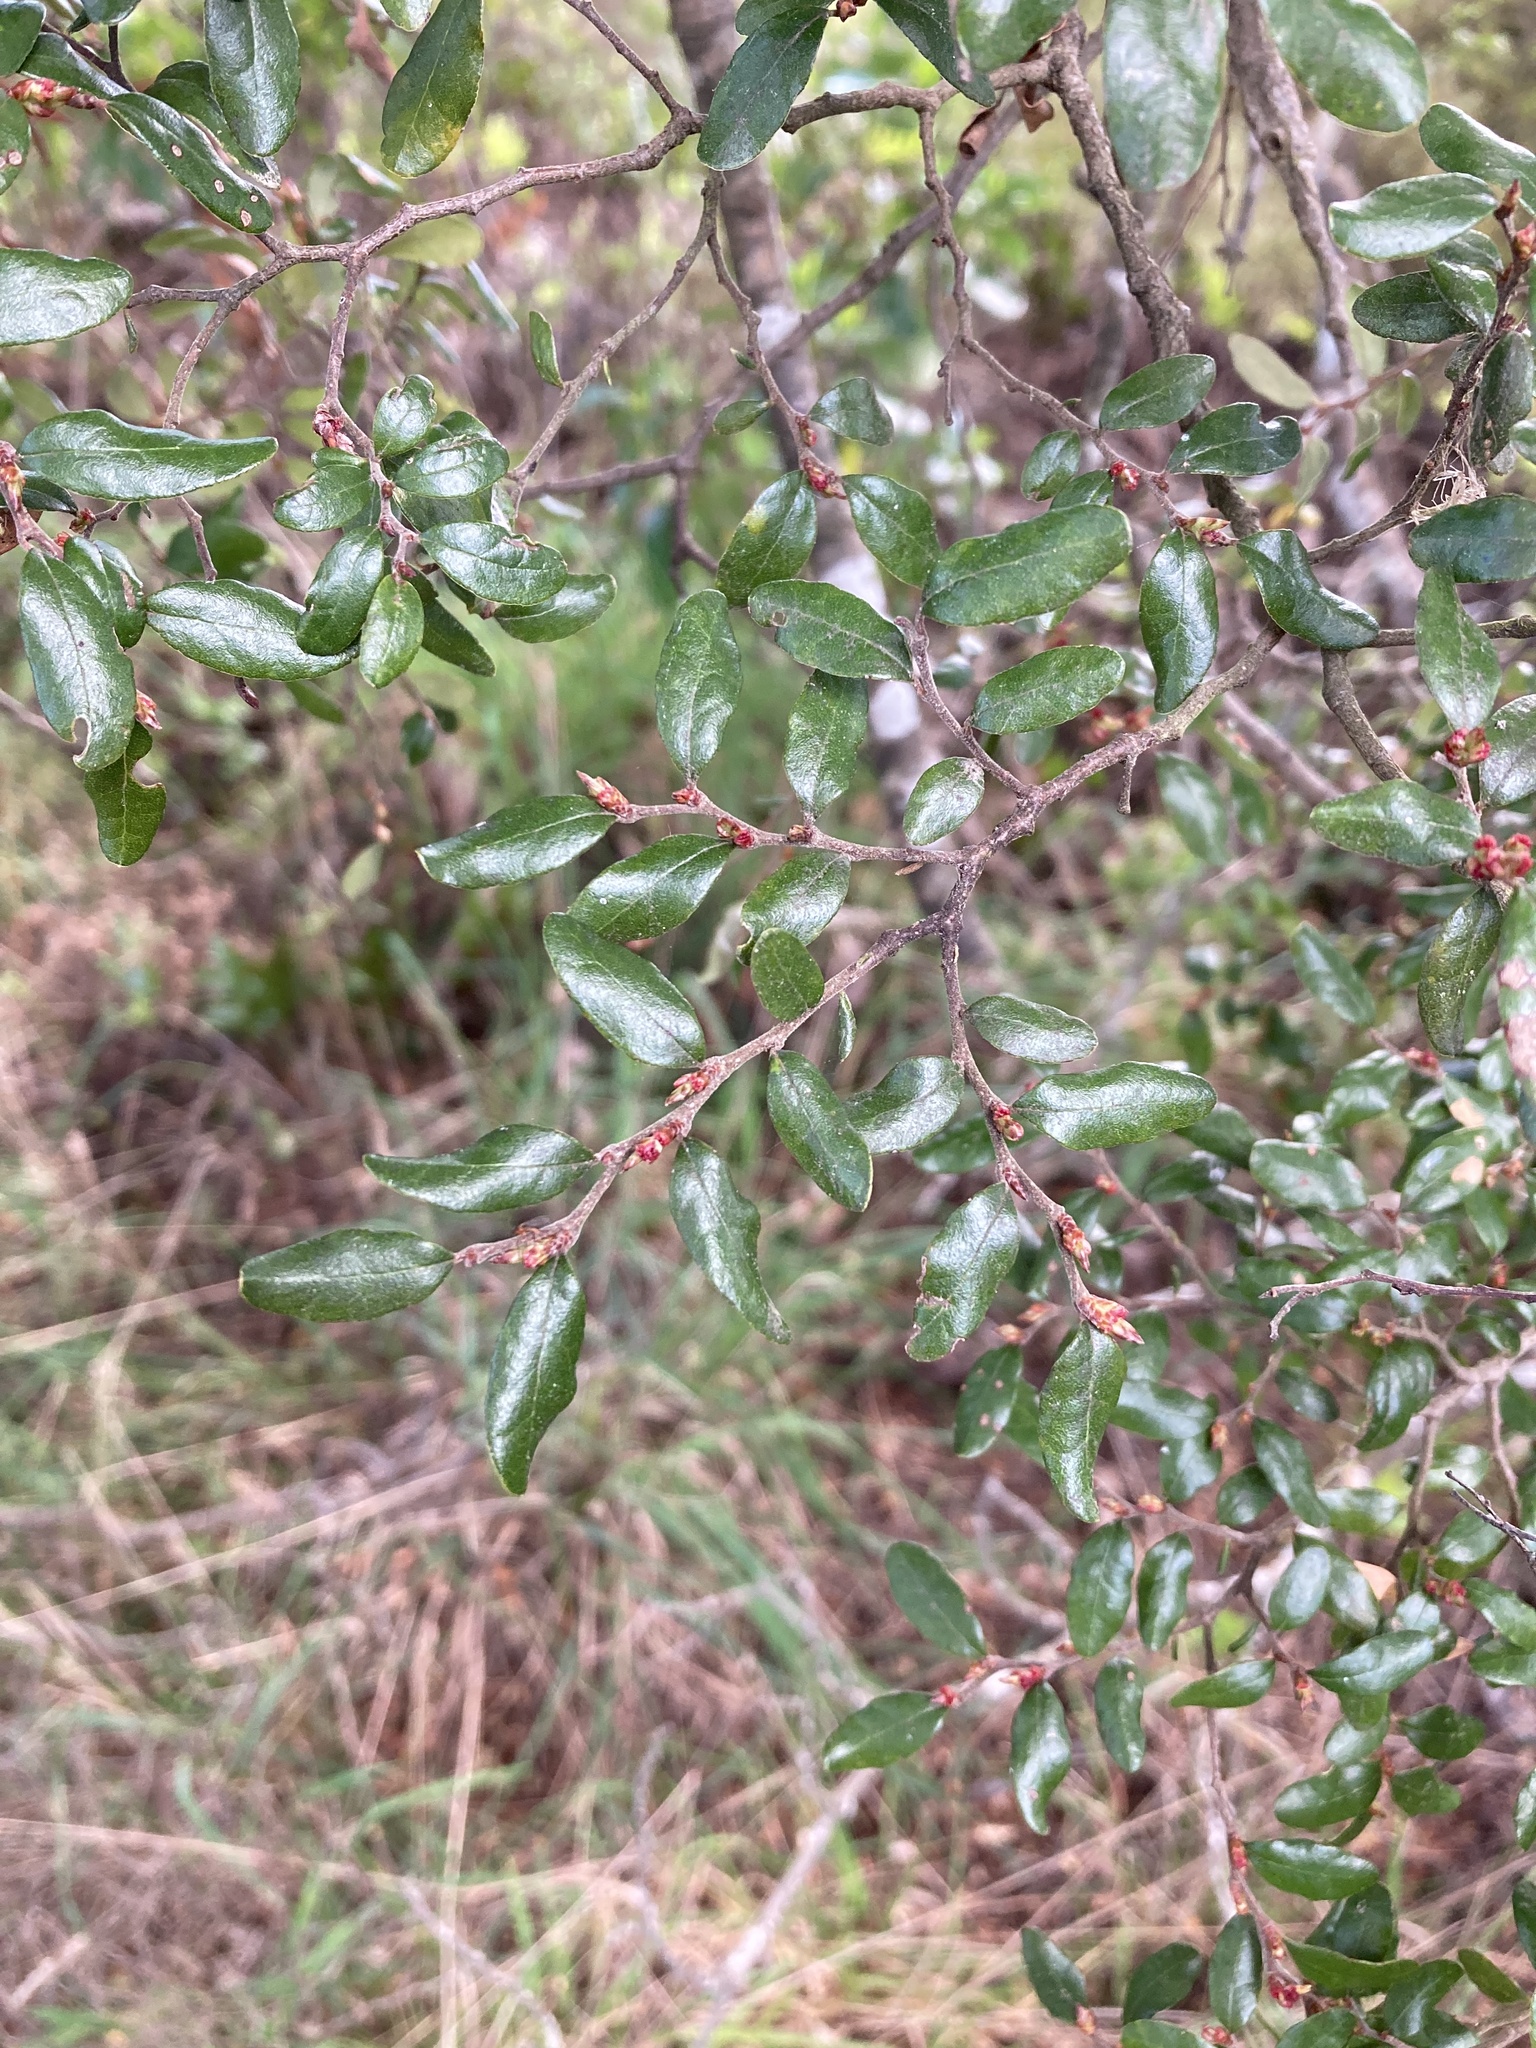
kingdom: Plantae
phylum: Tracheophyta
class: Magnoliopsida
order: Fagales
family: Nothofagaceae
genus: Nothofagus
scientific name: Nothofagus solandri
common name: Black beech
